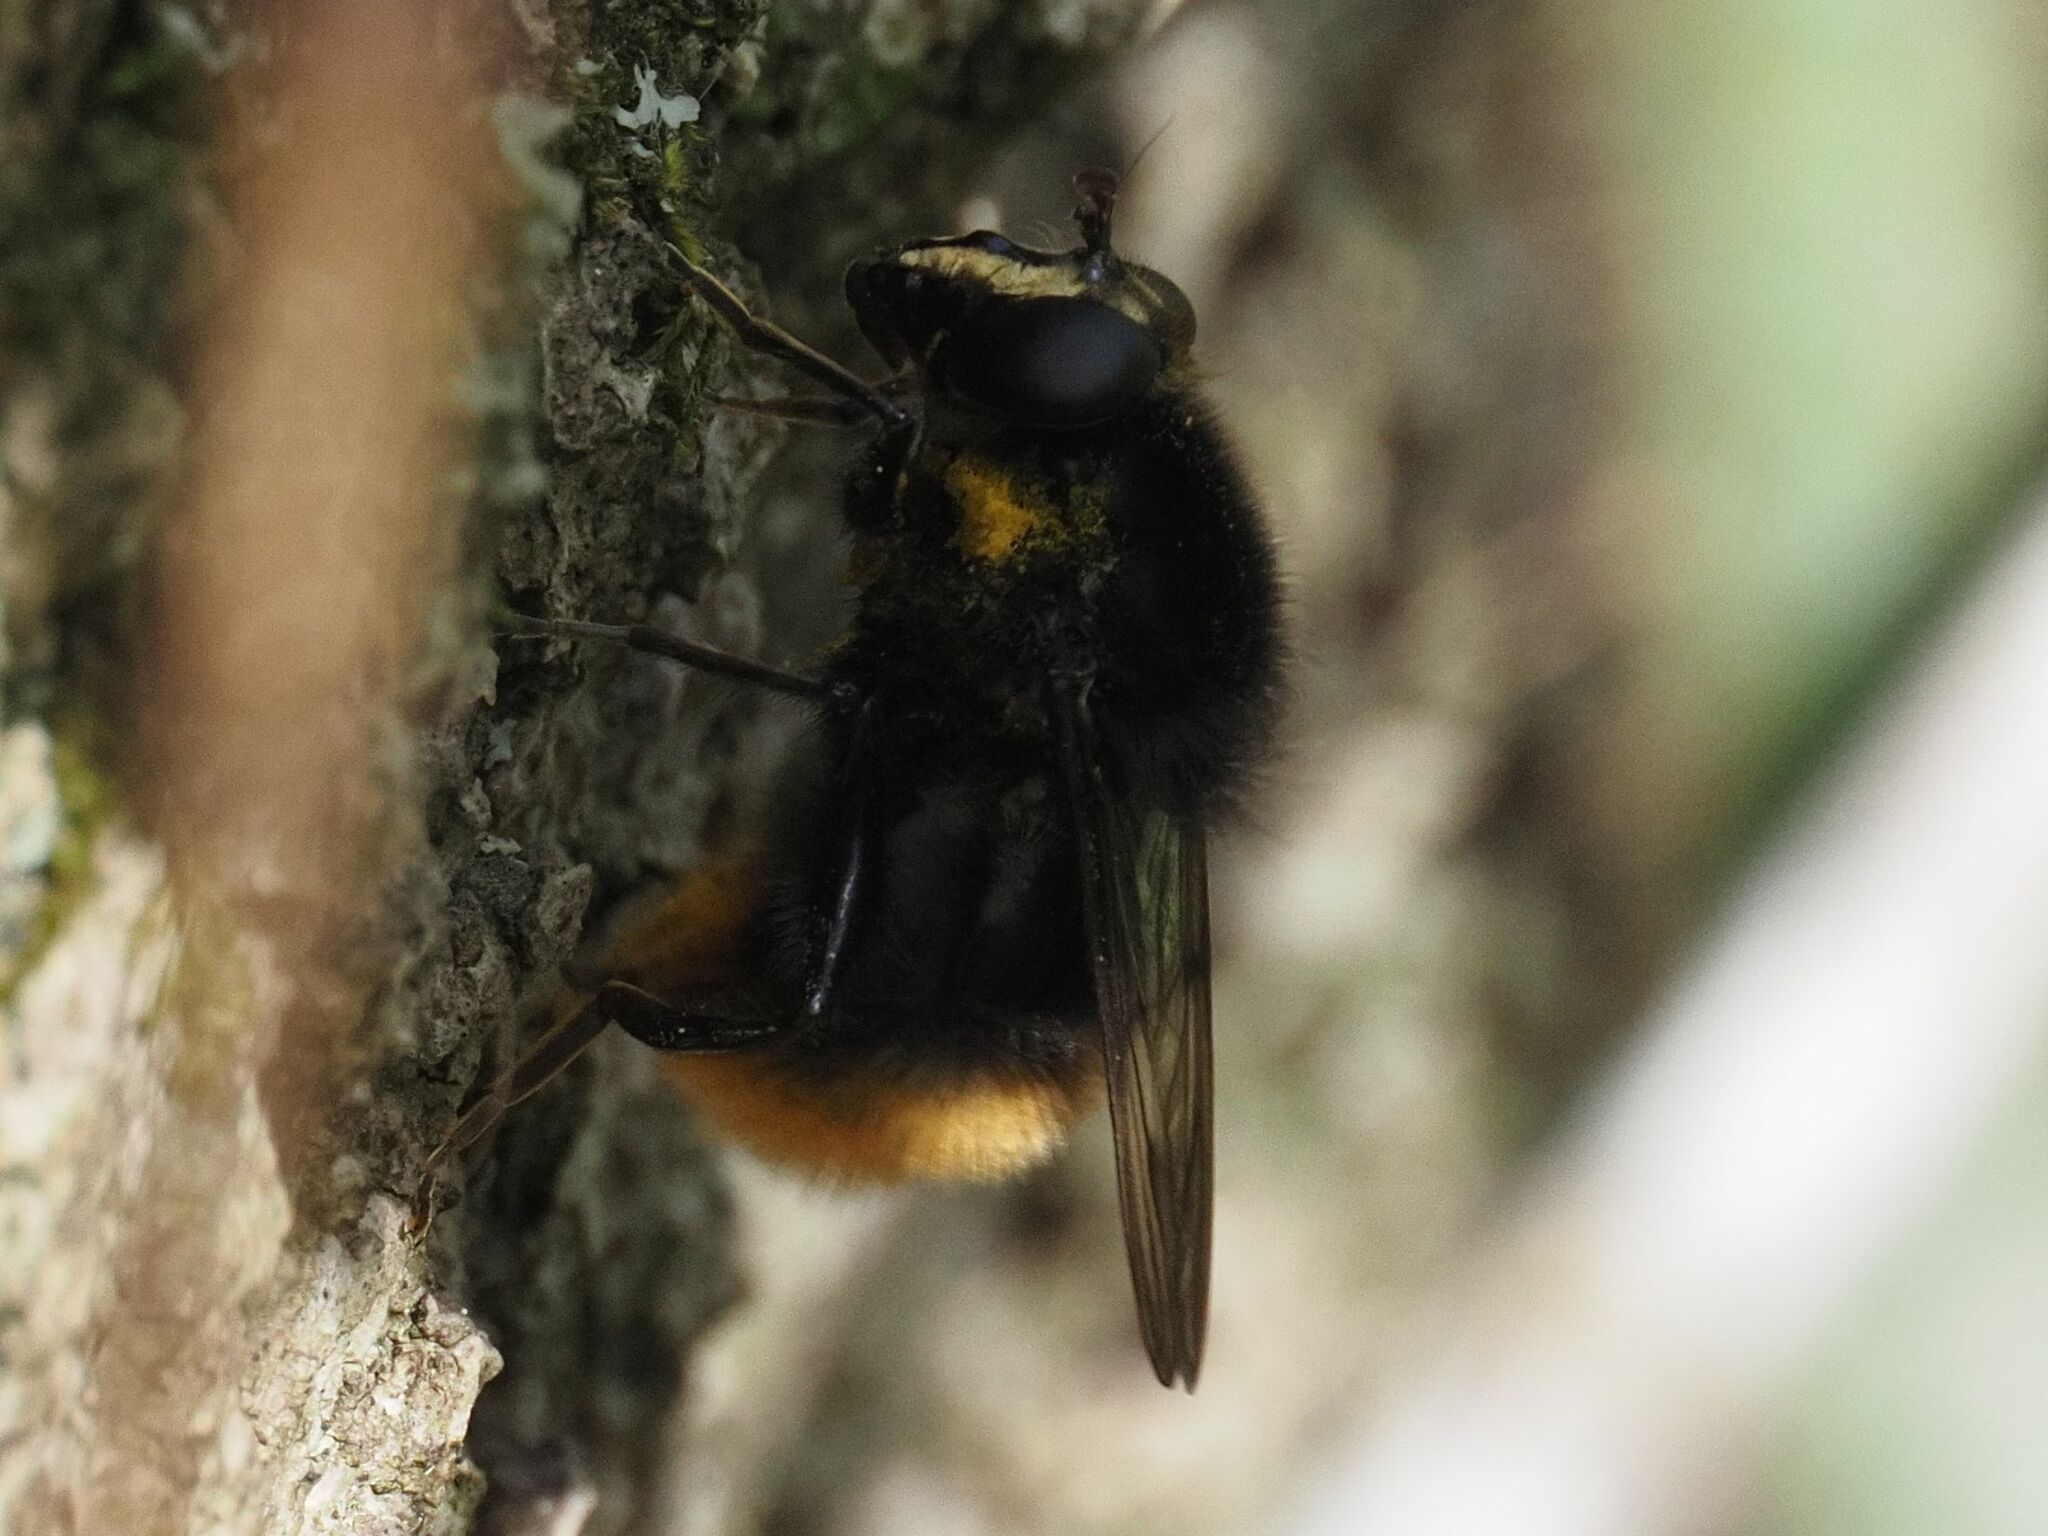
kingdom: Animalia
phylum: Arthropoda
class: Insecta
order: Diptera
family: Syrphidae
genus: Criorhina
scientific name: Criorhina ranunculi
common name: Large bear hoverfly
